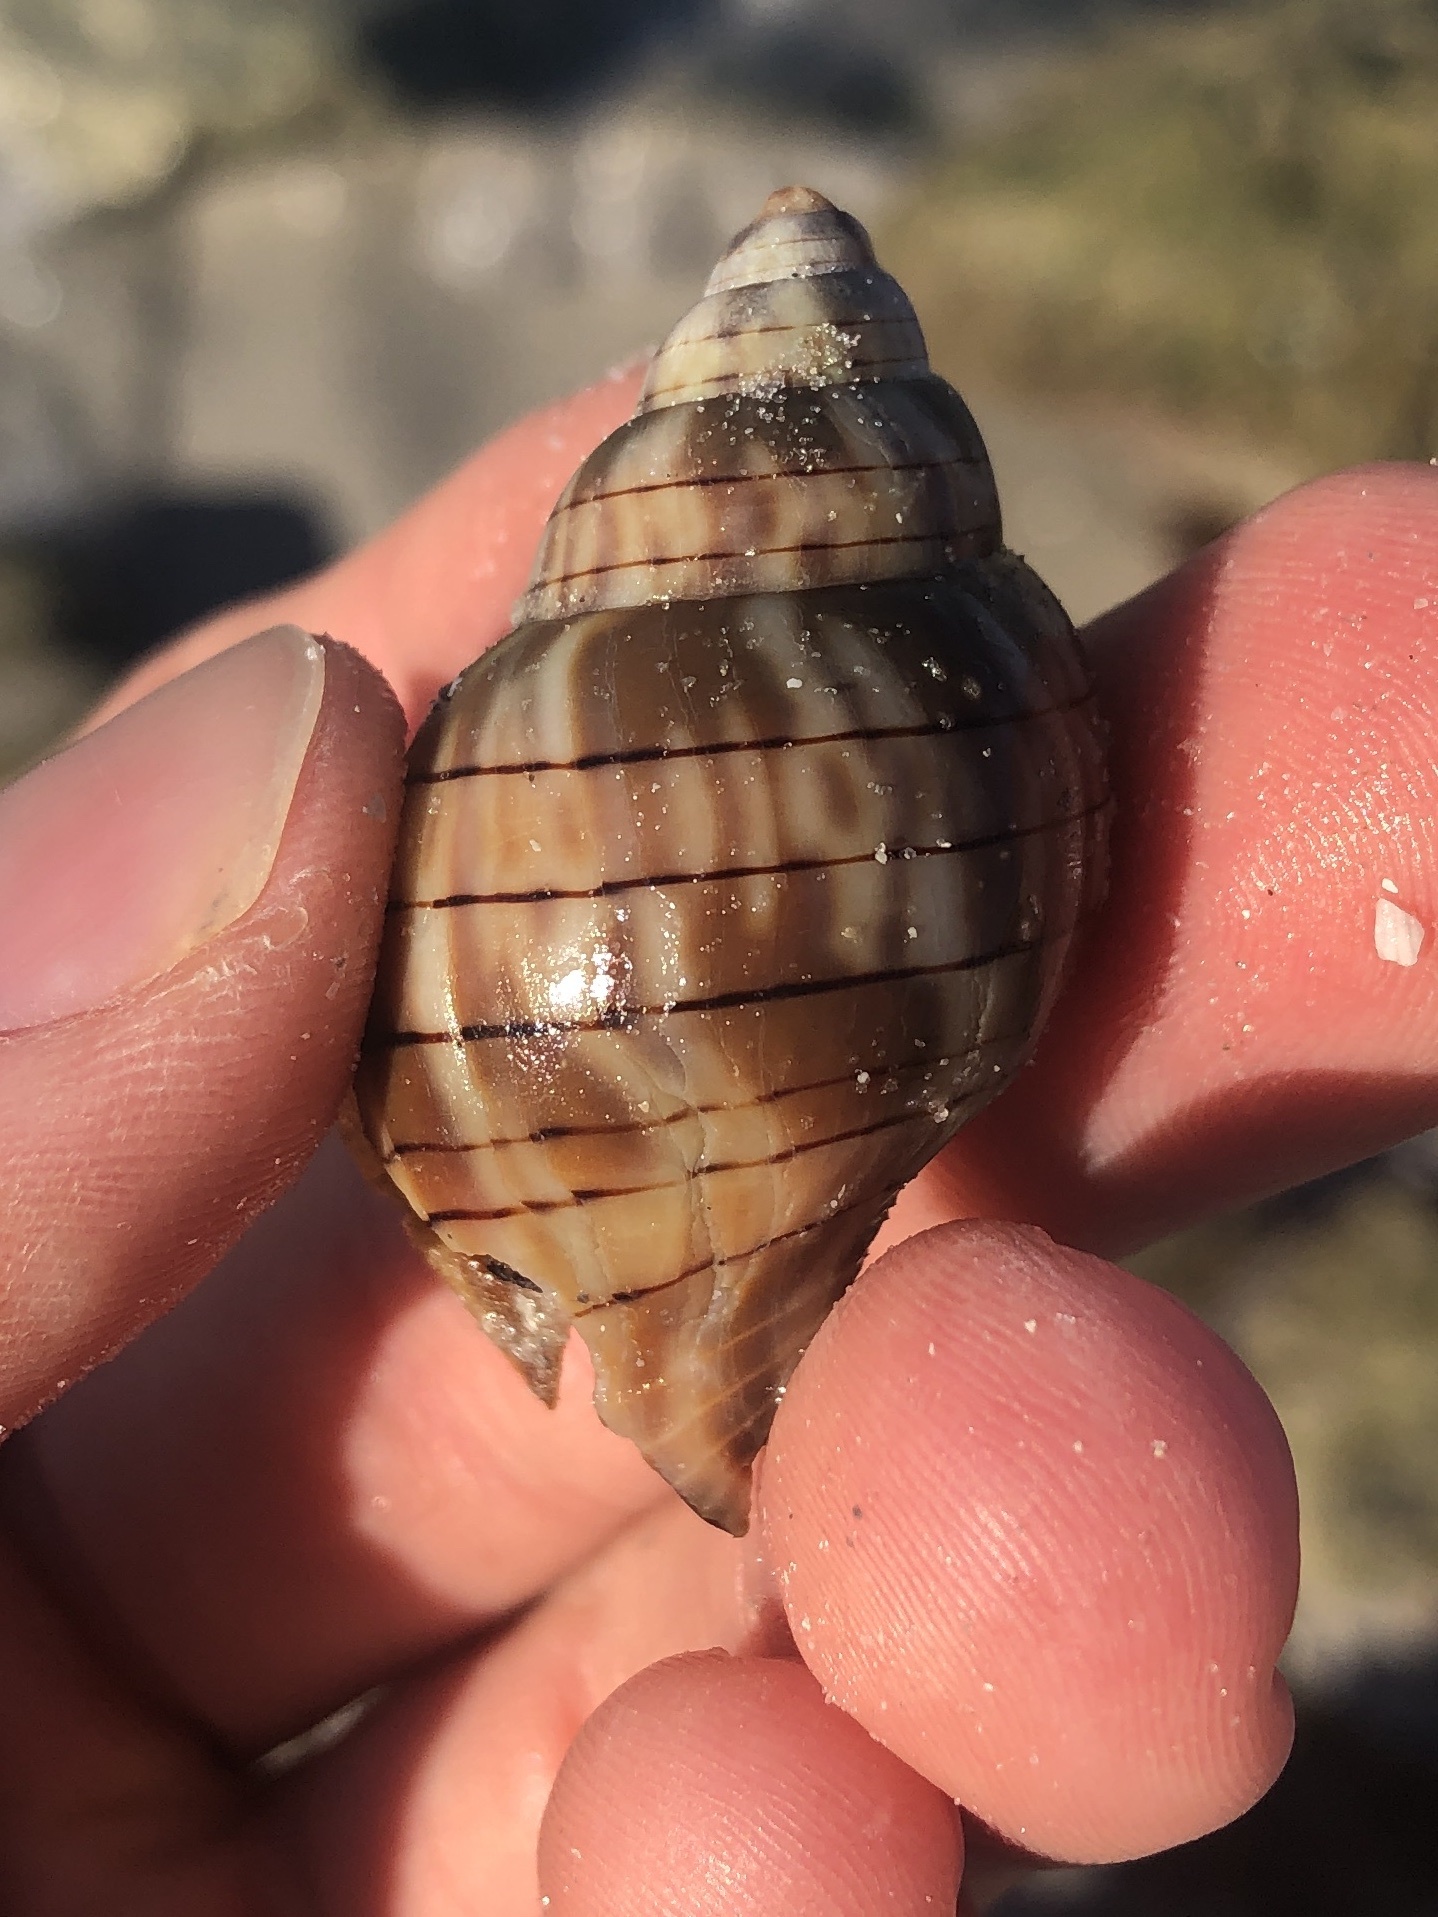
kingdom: Animalia
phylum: Mollusca
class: Gastropoda
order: Neogastropoda
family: Fasciolariidae
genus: Cinctura
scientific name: Cinctura hunteria
